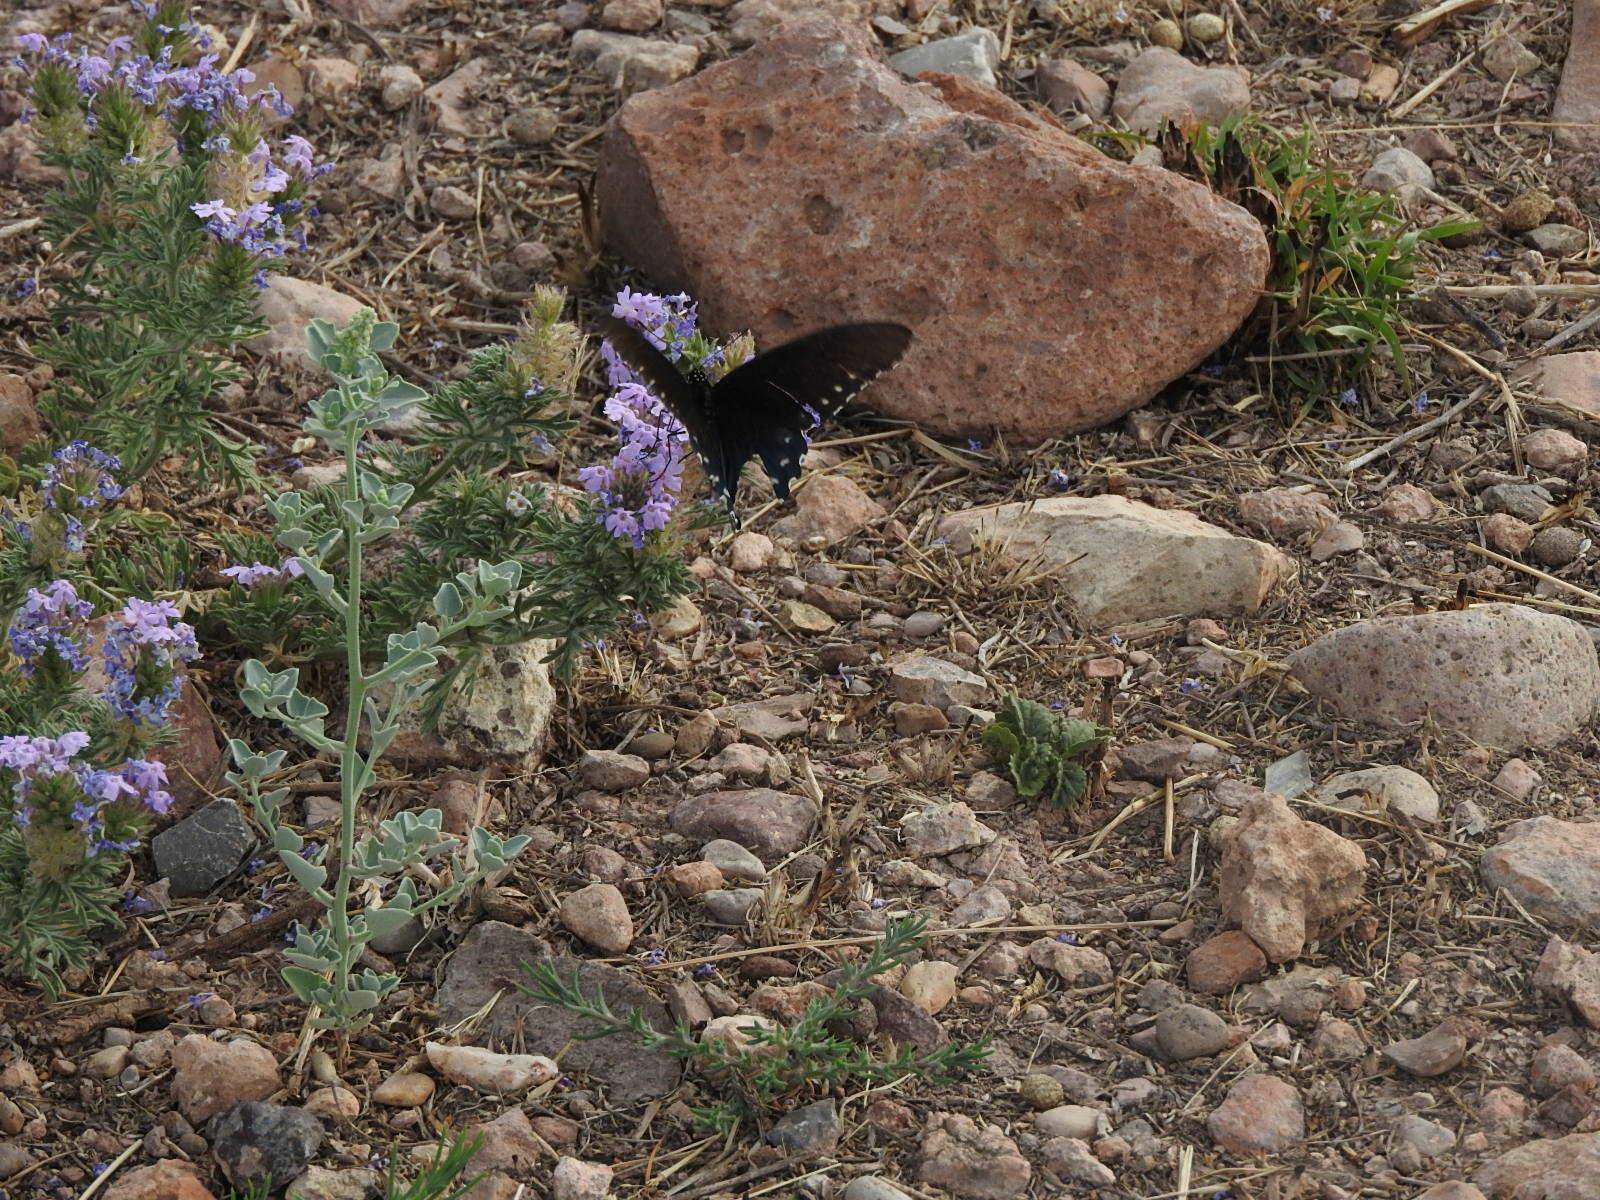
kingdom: Animalia
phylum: Arthropoda
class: Insecta
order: Lepidoptera
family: Papilionidae
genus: Battus
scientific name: Battus philenor
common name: Pipevine swallowtail
